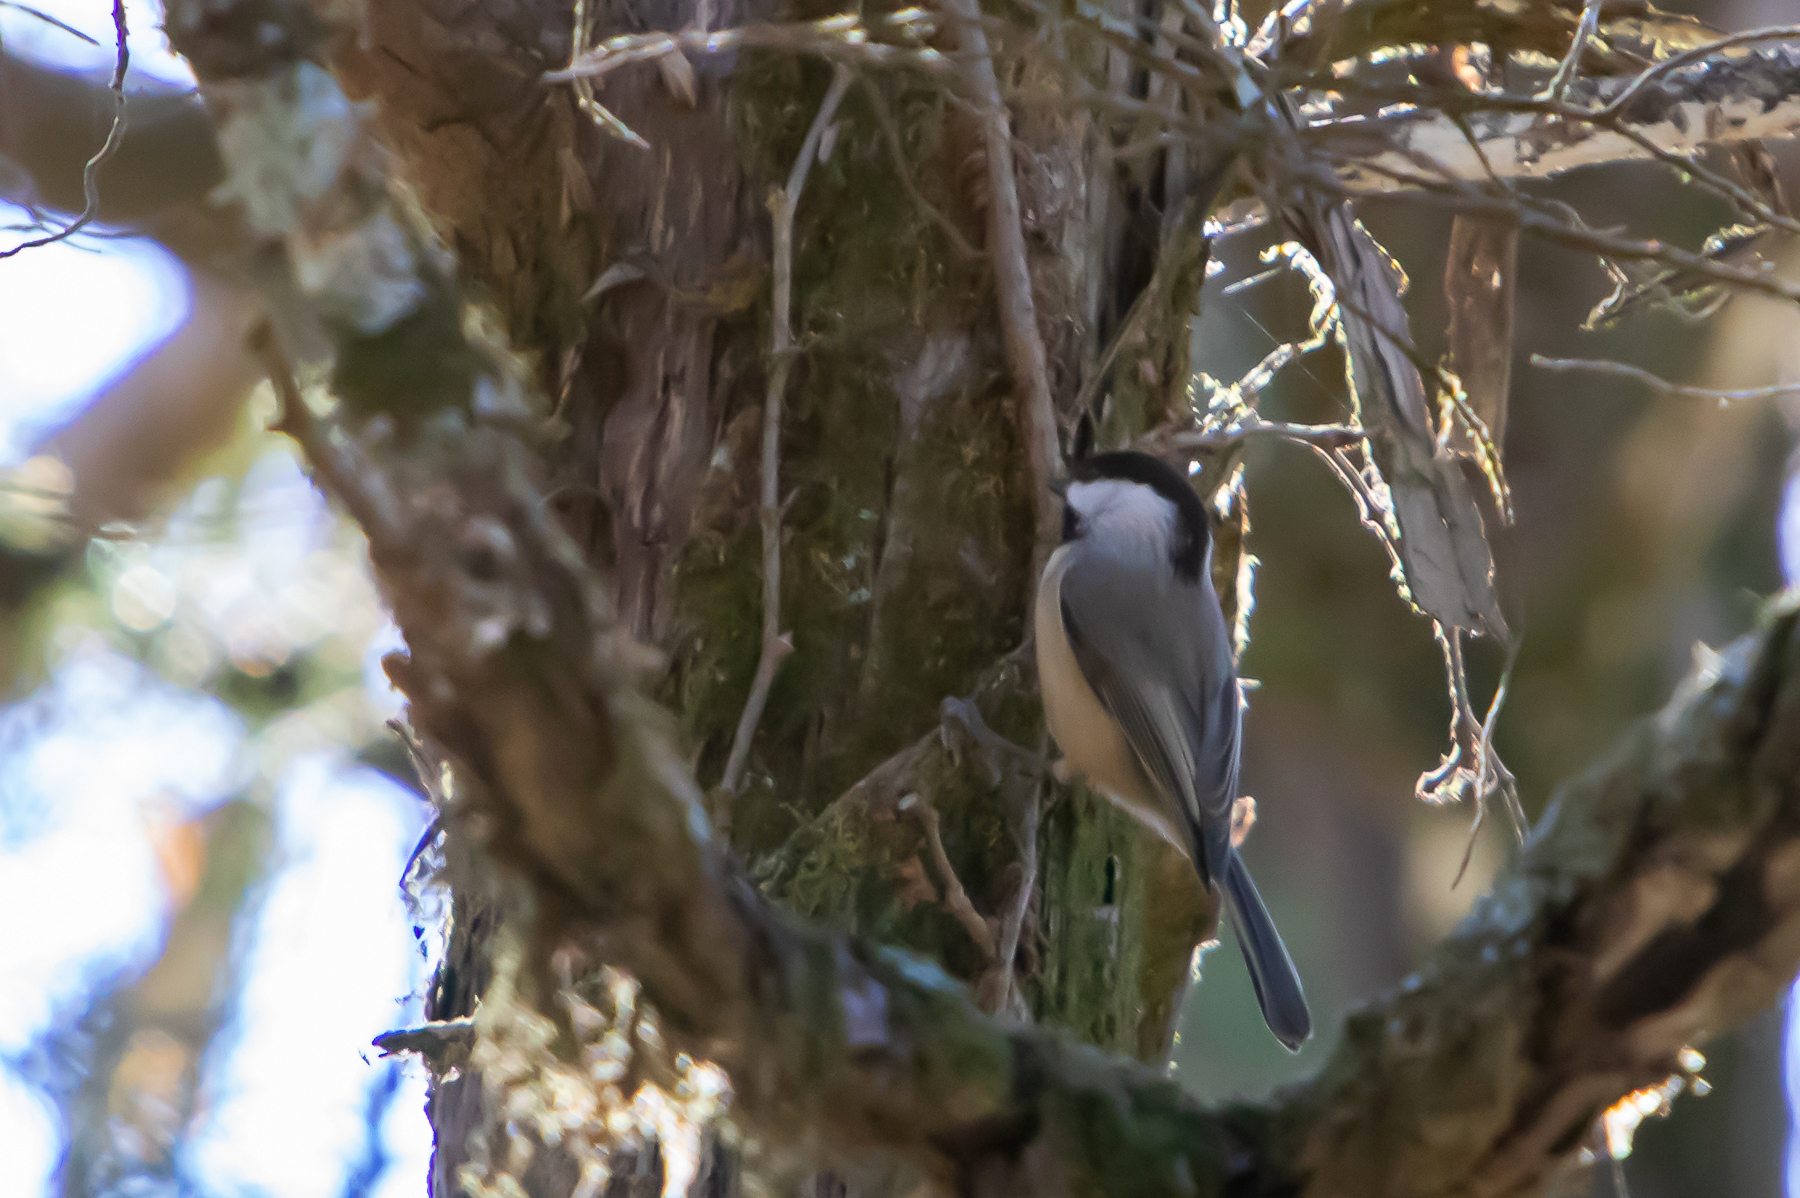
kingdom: Animalia
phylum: Chordata
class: Aves
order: Passeriformes
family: Paridae
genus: Poecile
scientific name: Poecile carolinensis
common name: Carolina chickadee
